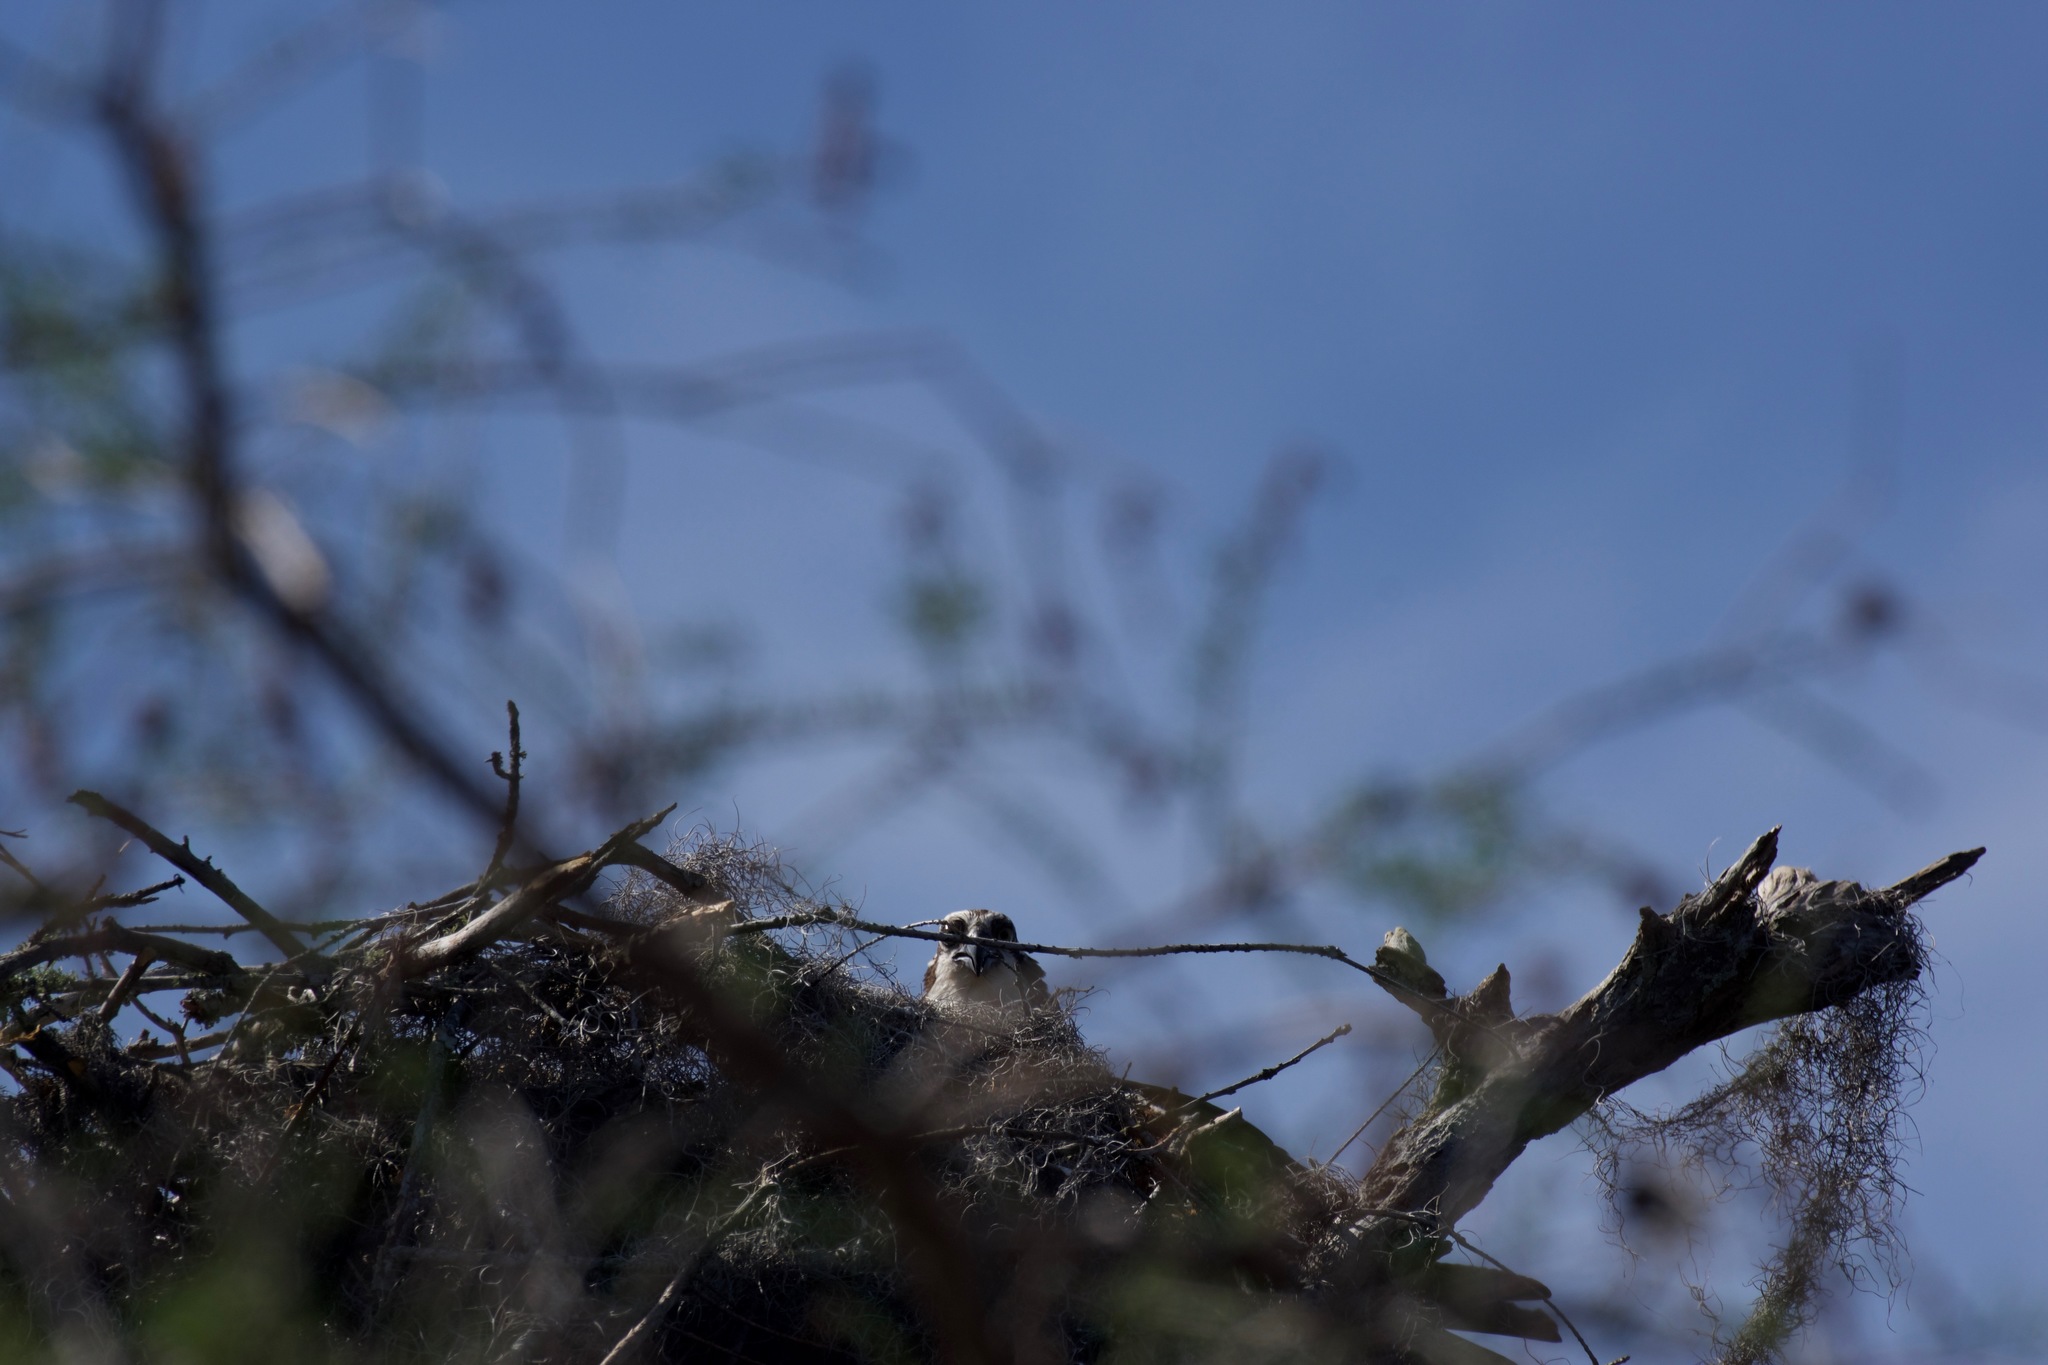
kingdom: Animalia
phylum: Chordata
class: Aves
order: Accipitriformes
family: Pandionidae
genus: Pandion
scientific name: Pandion haliaetus
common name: Osprey
